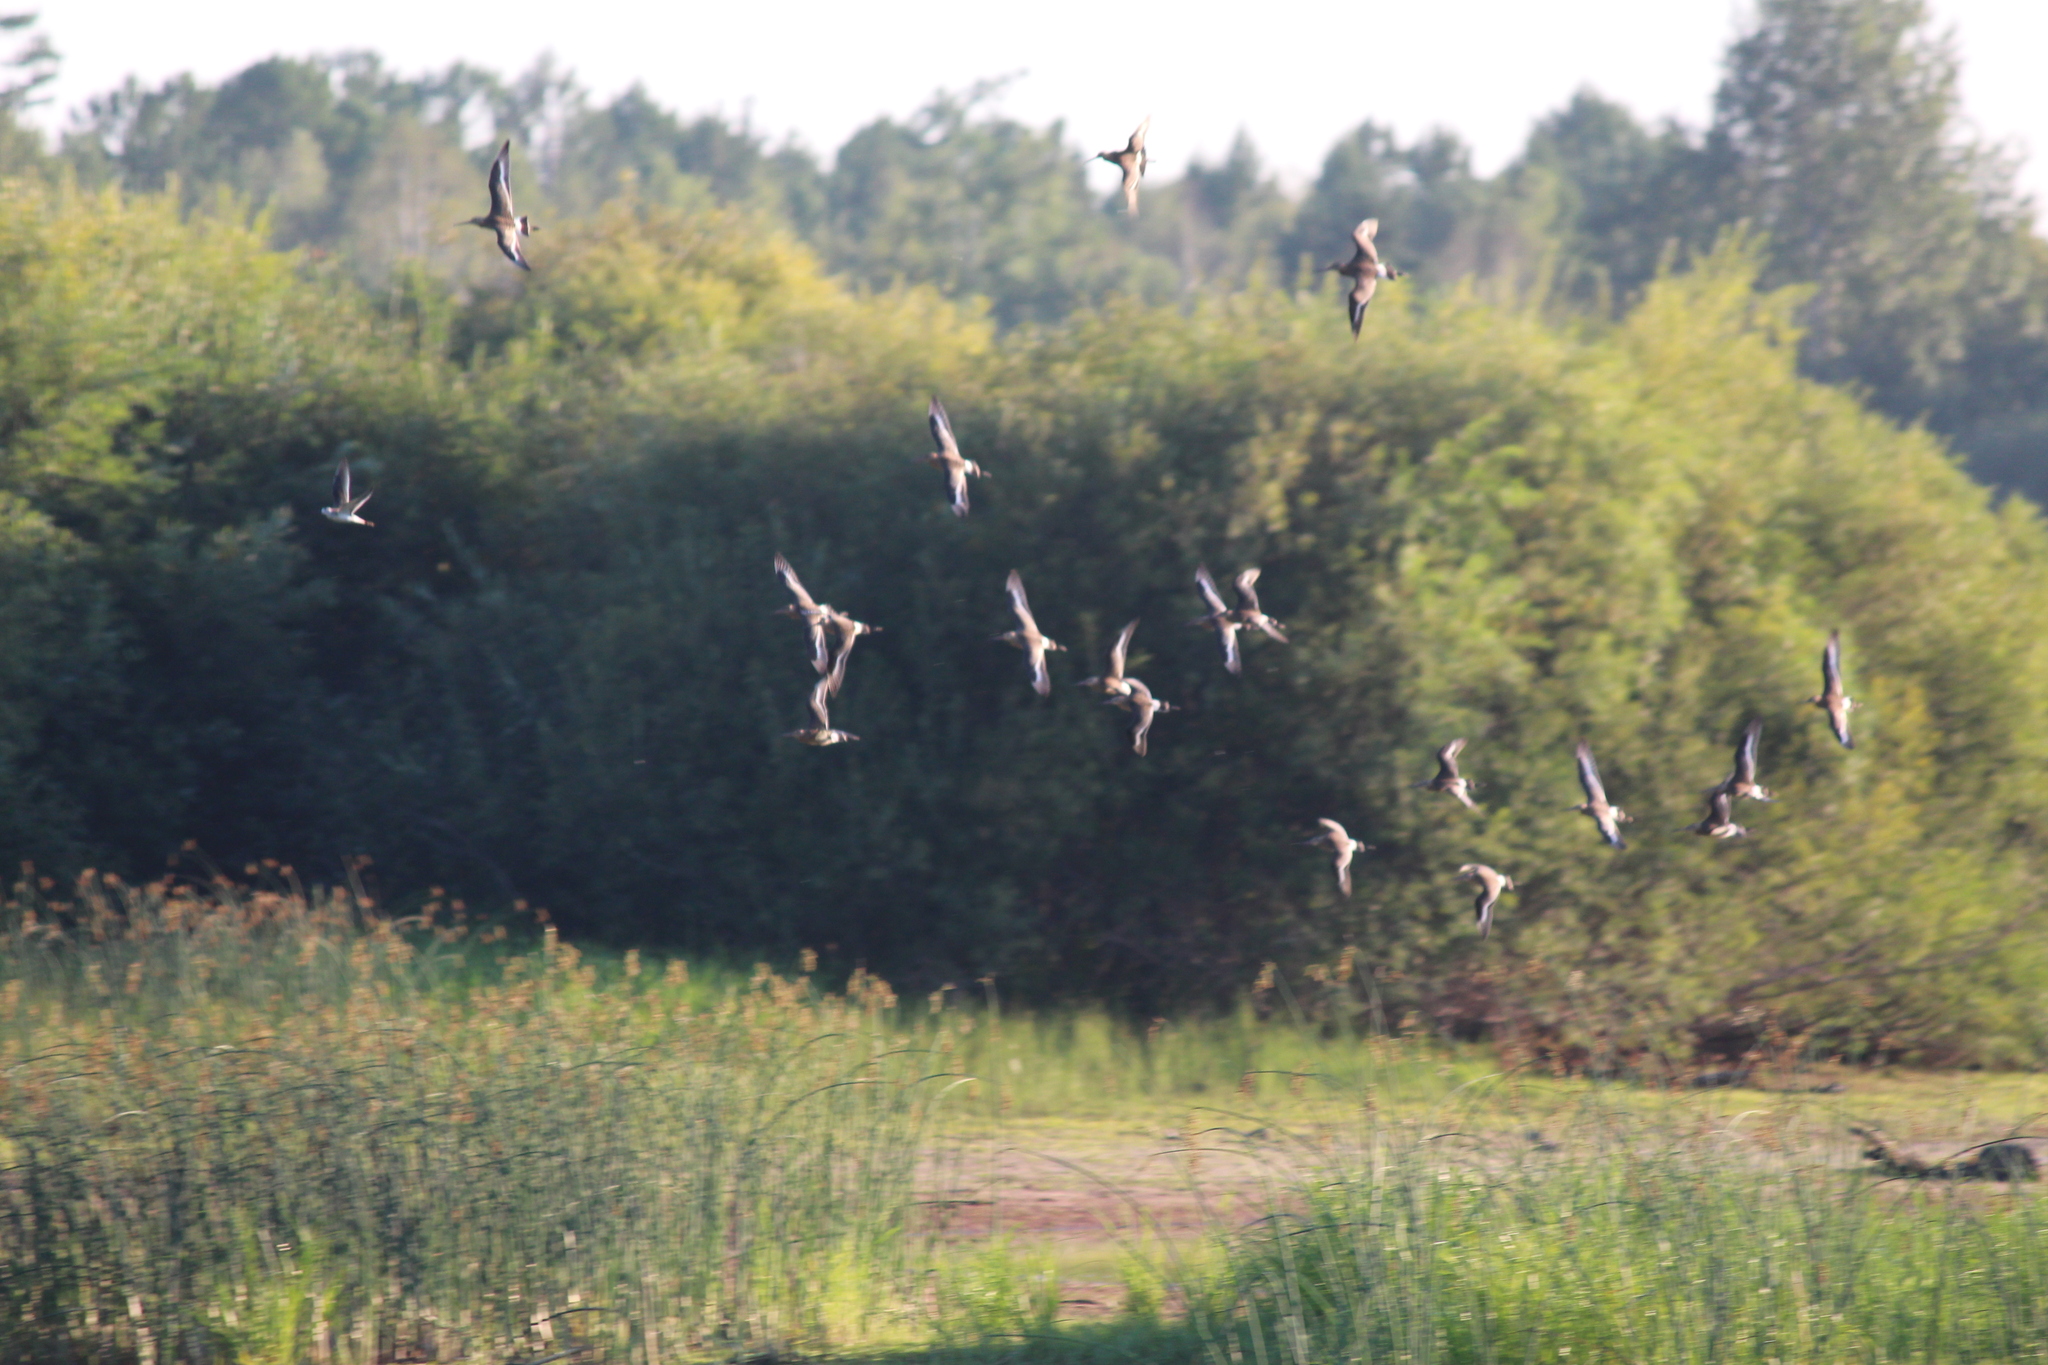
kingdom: Animalia
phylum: Chordata
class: Aves
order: Charadriiformes
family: Scolopacidae
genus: Limosa
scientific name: Limosa limosa
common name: Black-tailed godwit
